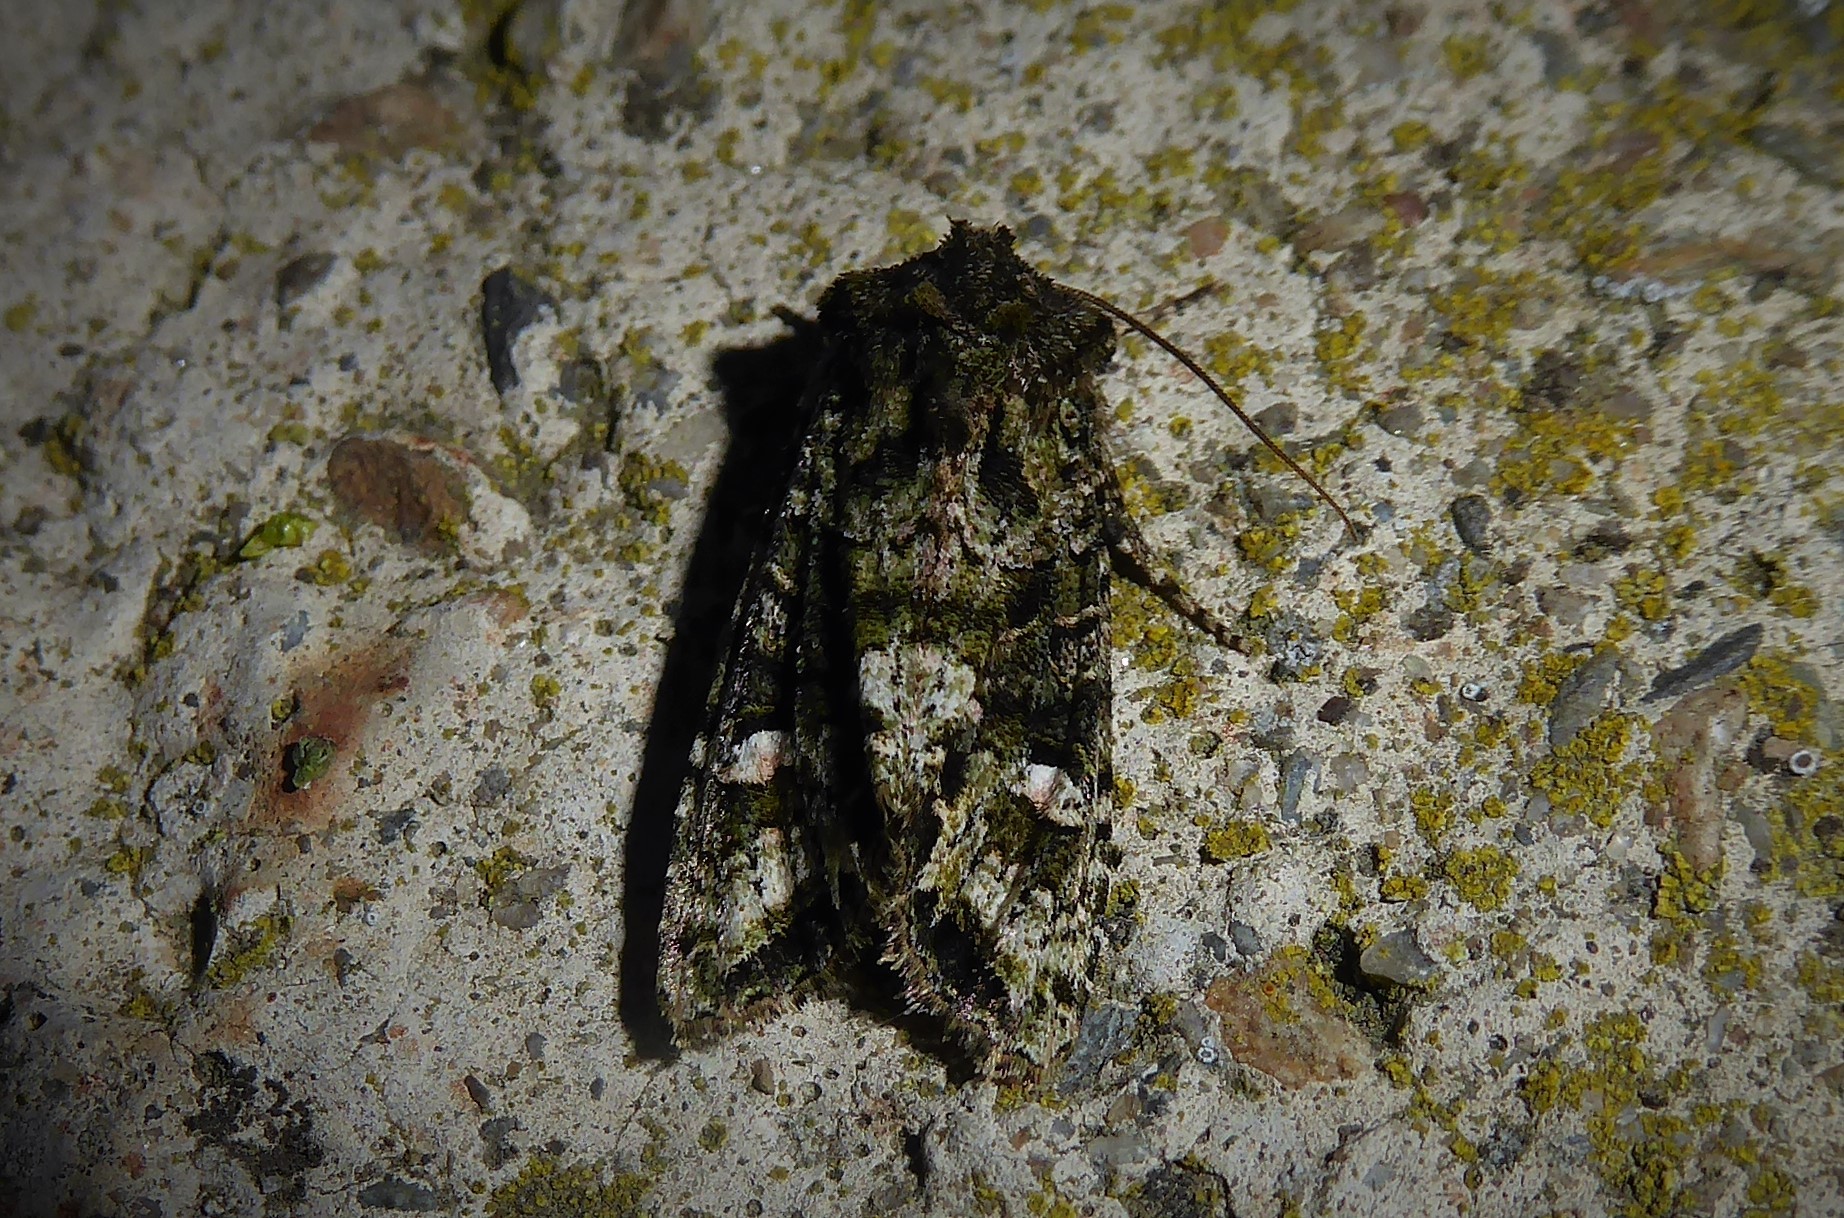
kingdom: Animalia
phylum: Arthropoda
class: Insecta
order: Lepidoptera
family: Noctuidae
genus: Ichneutica
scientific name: Ichneutica
